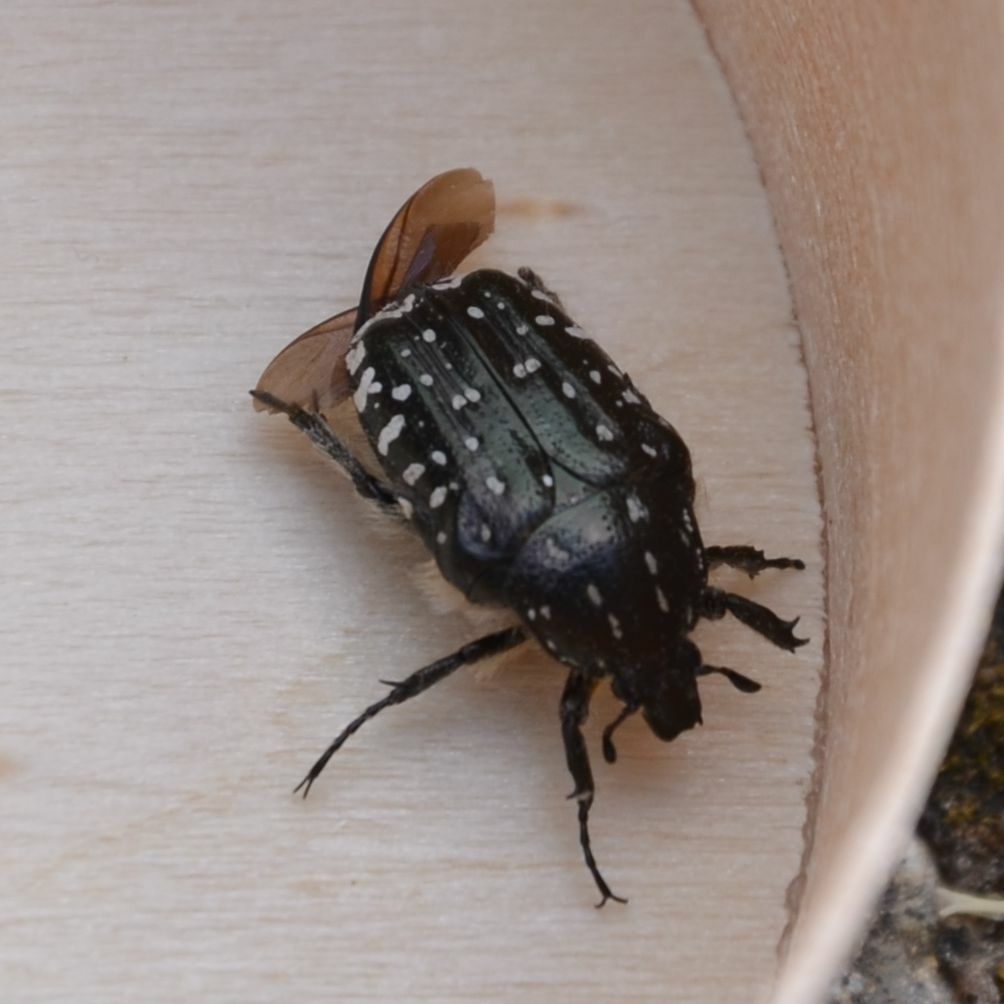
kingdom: Animalia
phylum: Arthropoda
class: Insecta
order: Coleoptera
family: Scarabaeidae
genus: Oxythyrea
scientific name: Oxythyrea funesta
